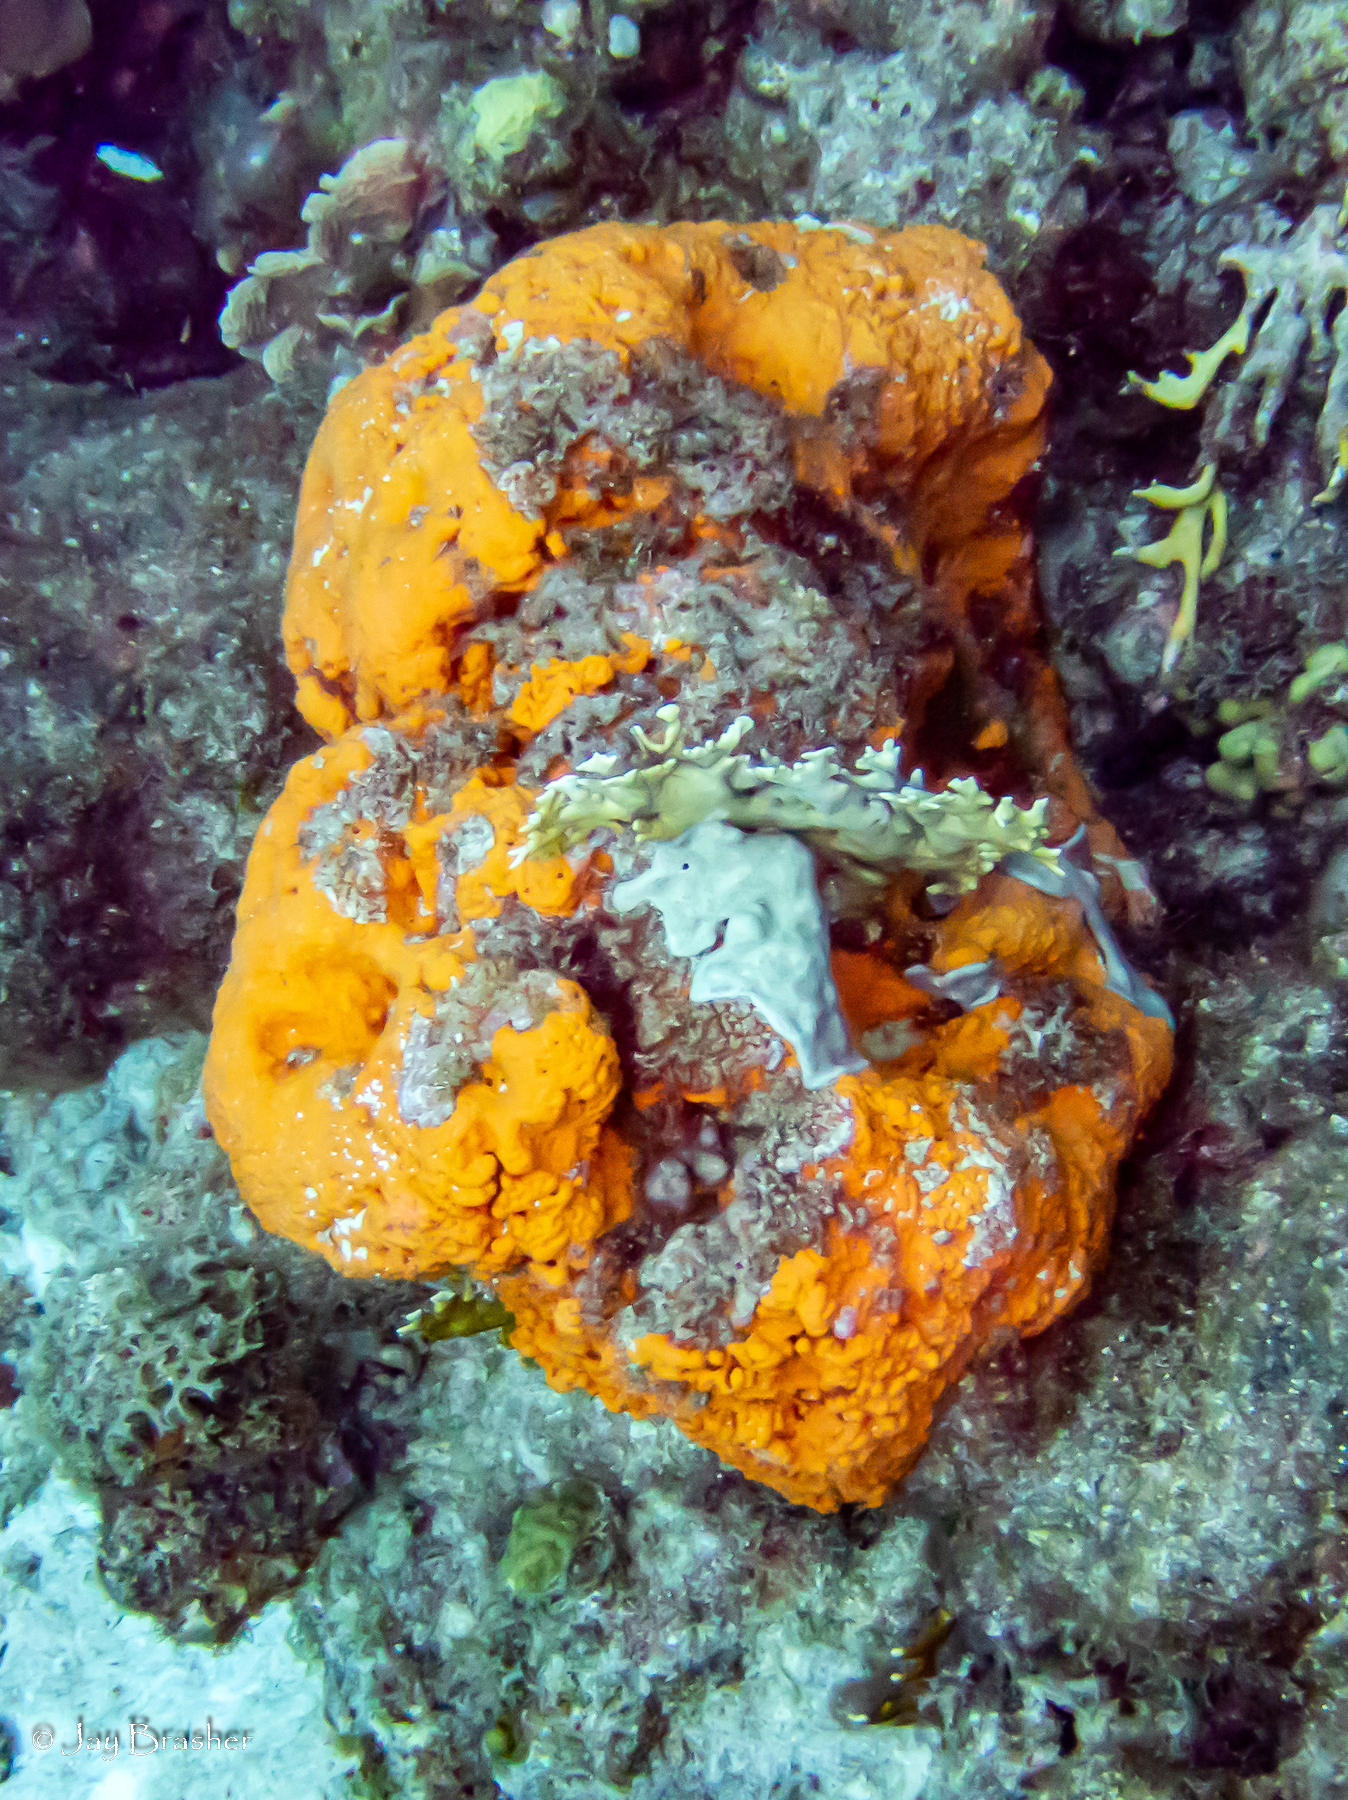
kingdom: Animalia
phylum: Porifera
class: Demospongiae
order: Agelasida
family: Agelasidae
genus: Agelas
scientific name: Agelas clathrodes
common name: Orange elephant ear sponge
